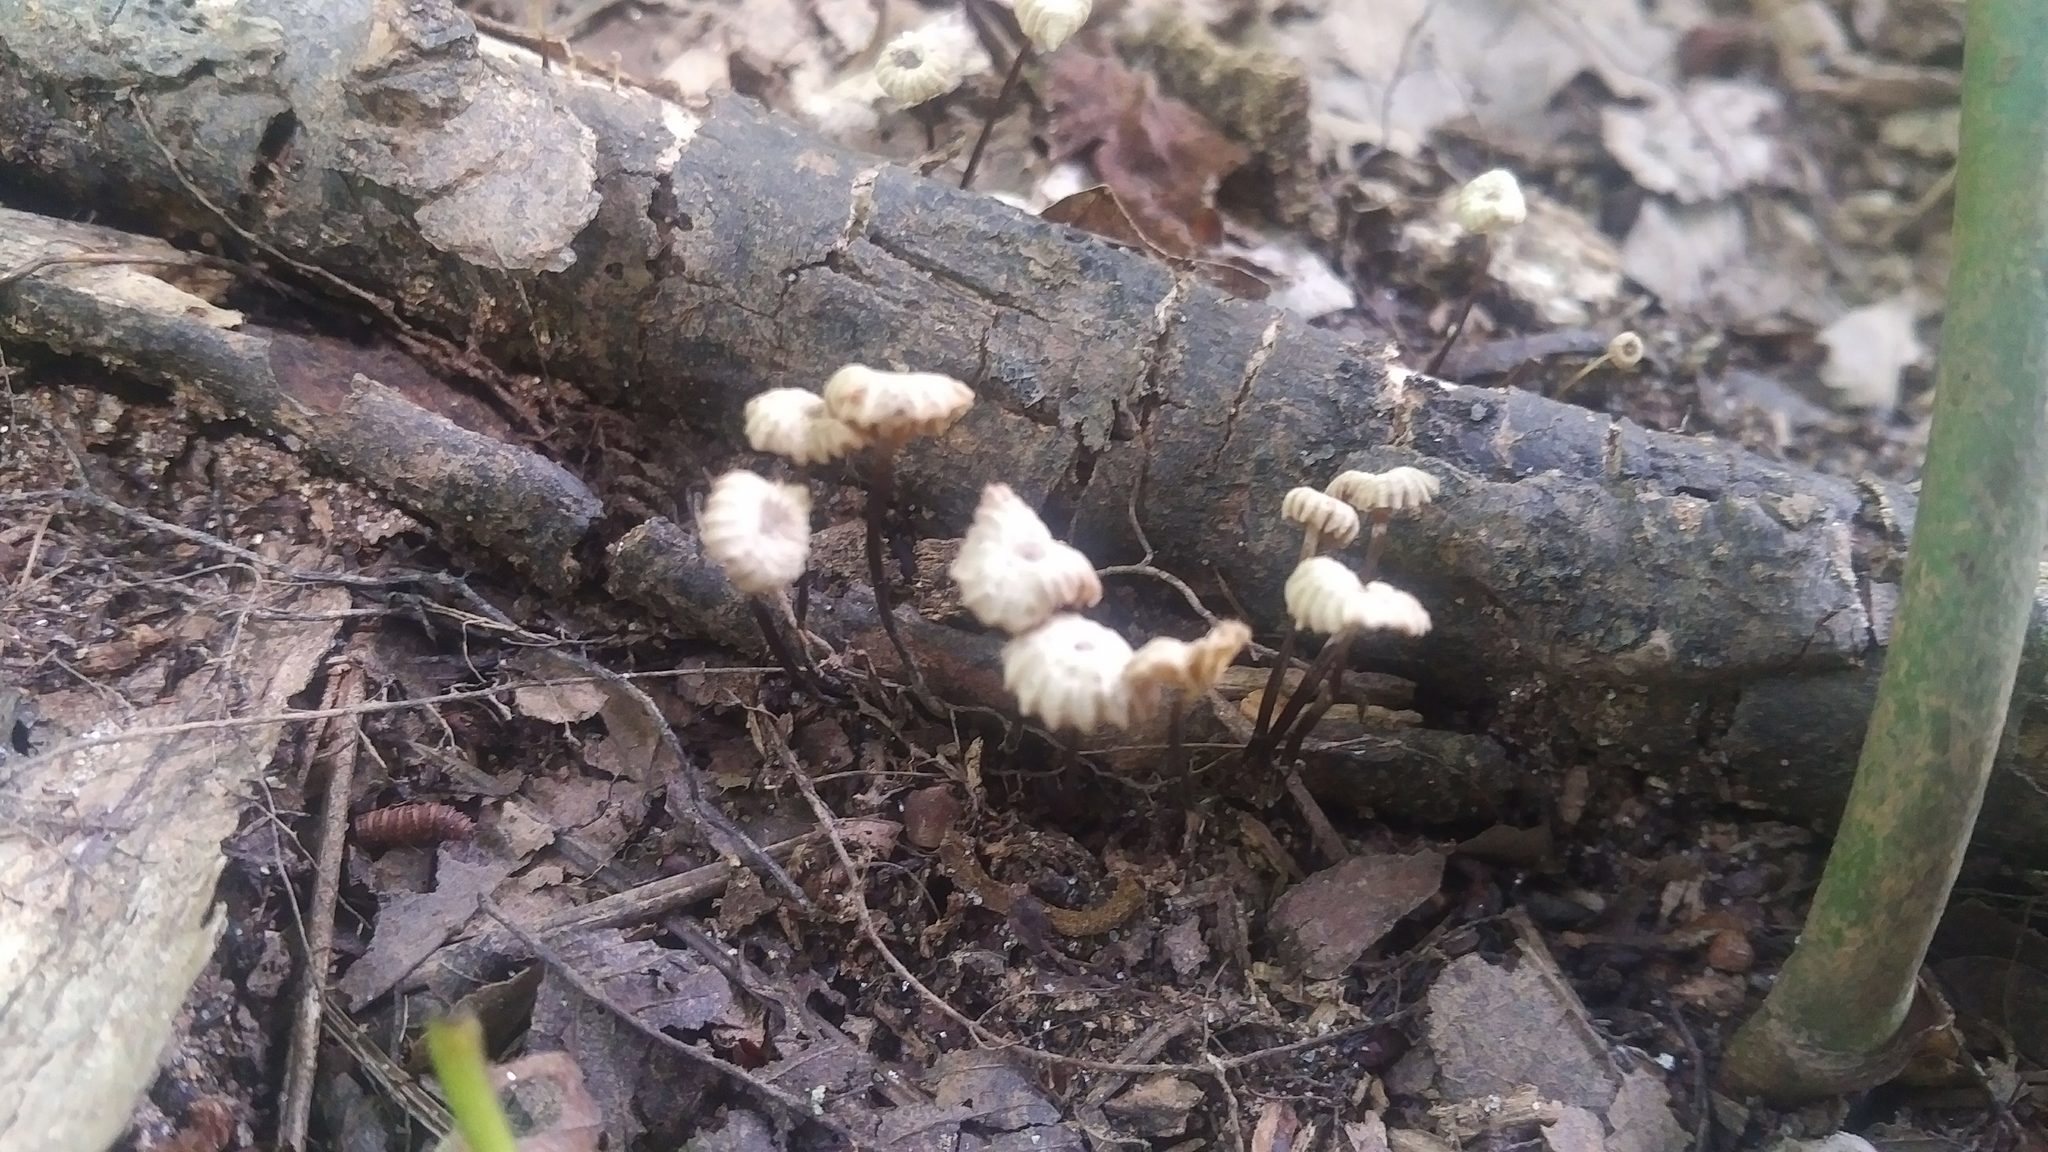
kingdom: Fungi
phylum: Basidiomycota
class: Agaricomycetes
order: Agaricales
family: Marasmiaceae
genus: Marasmius
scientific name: Marasmius rotula
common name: Collared parachute
